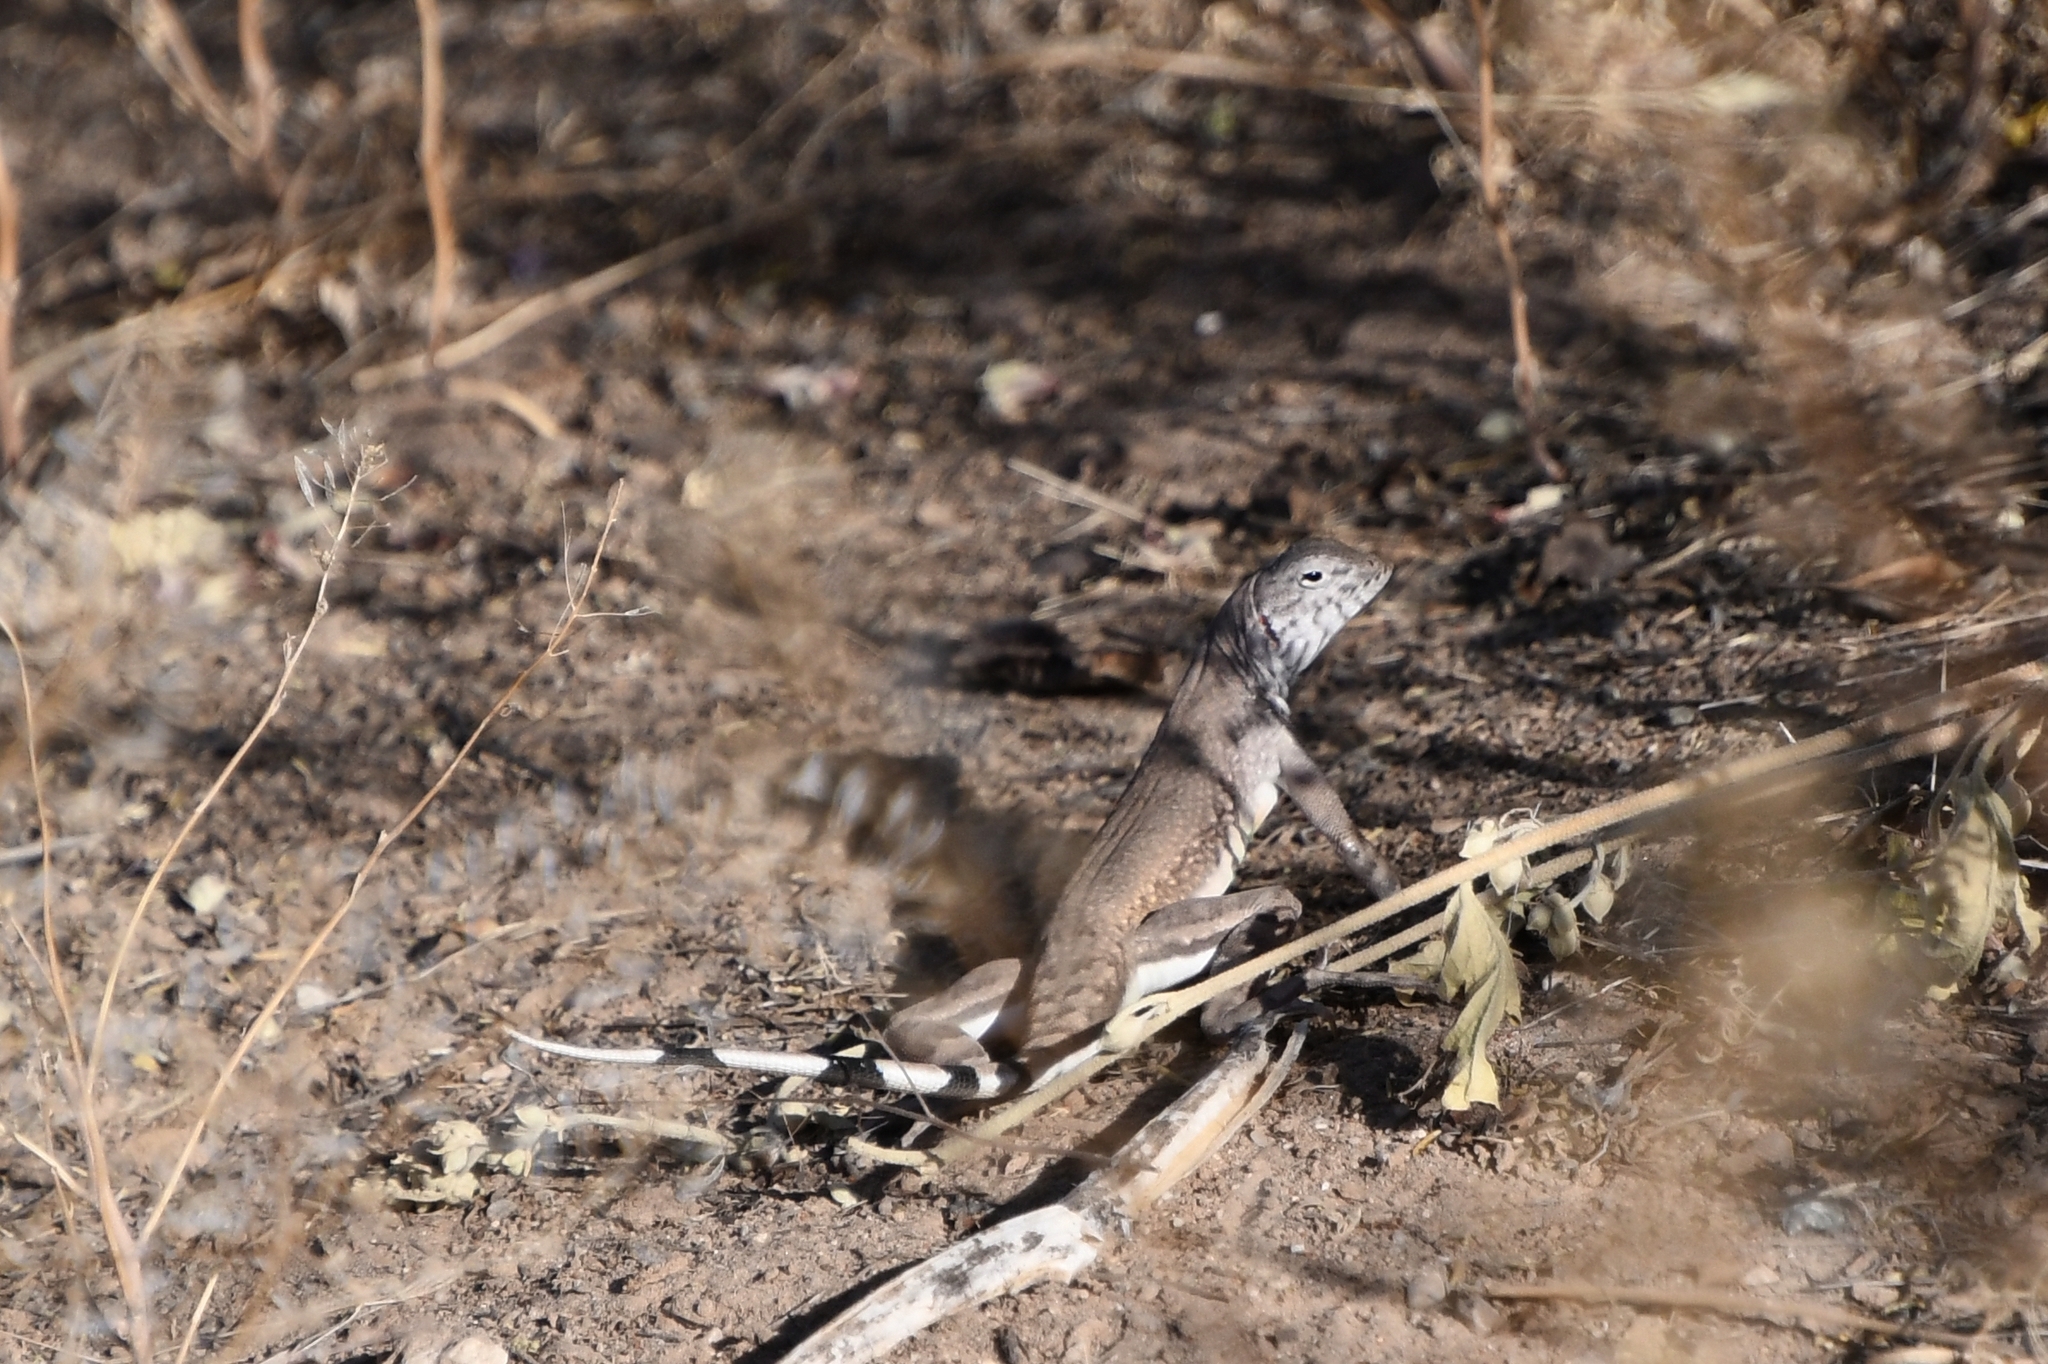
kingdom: Animalia
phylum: Chordata
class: Squamata
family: Phrynosomatidae
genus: Callisaurus
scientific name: Callisaurus draconoides
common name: Zebra-tailed lizard
